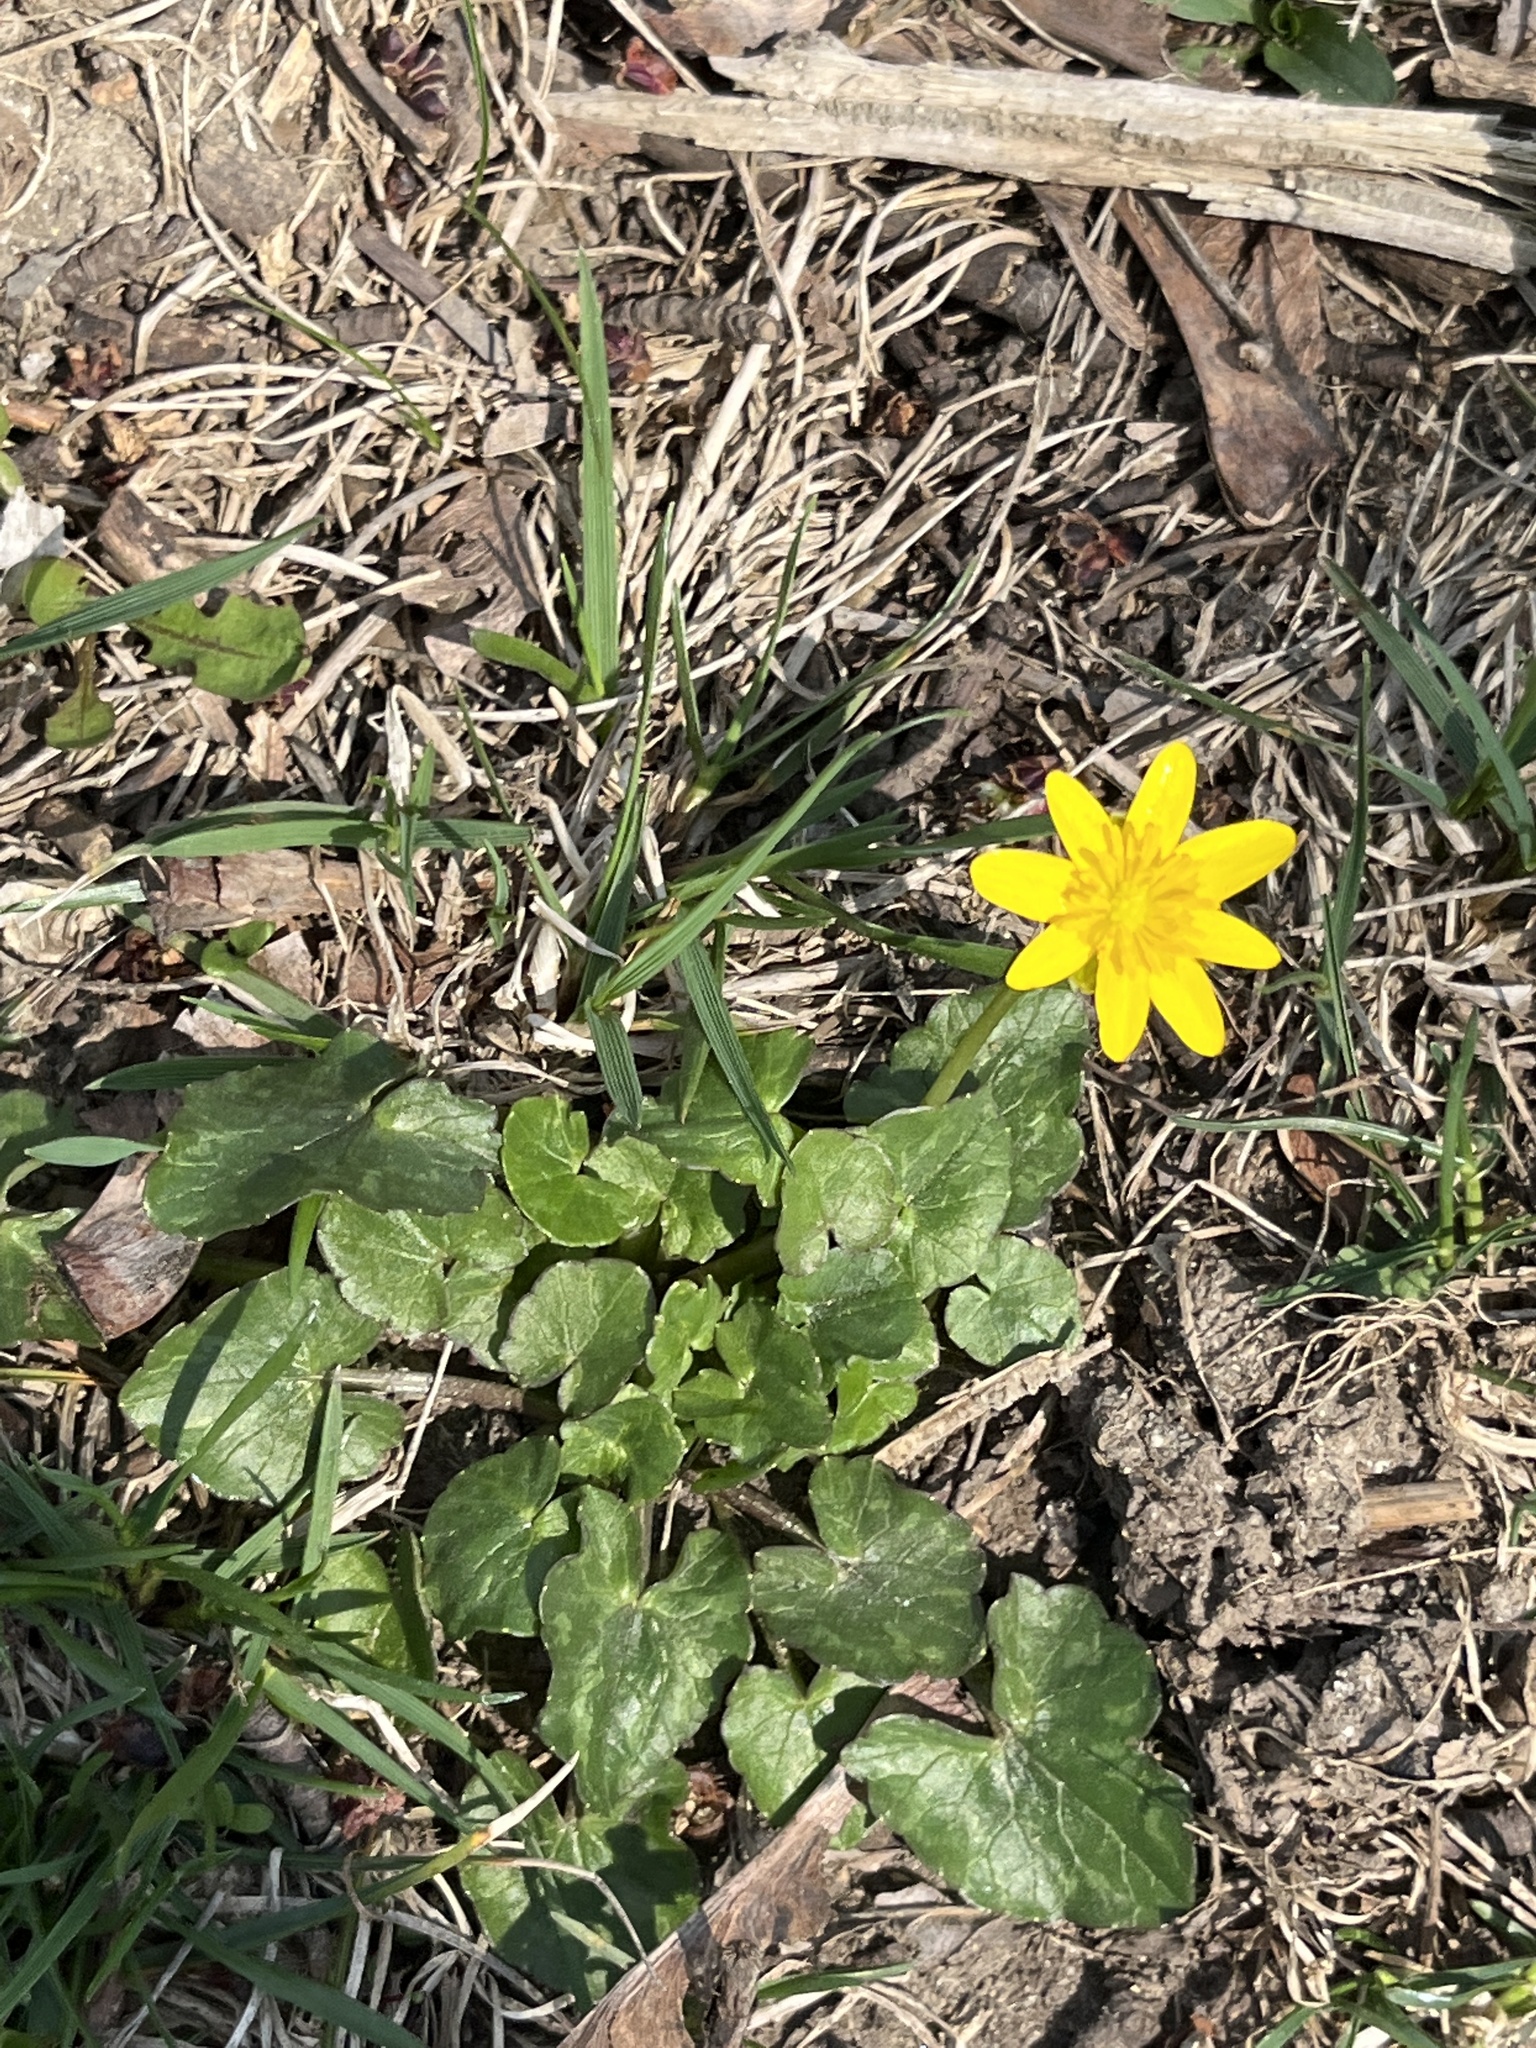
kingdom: Plantae
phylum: Tracheophyta
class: Magnoliopsida
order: Ranunculales
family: Ranunculaceae
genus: Ficaria
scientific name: Ficaria verna
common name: Lesser celandine
